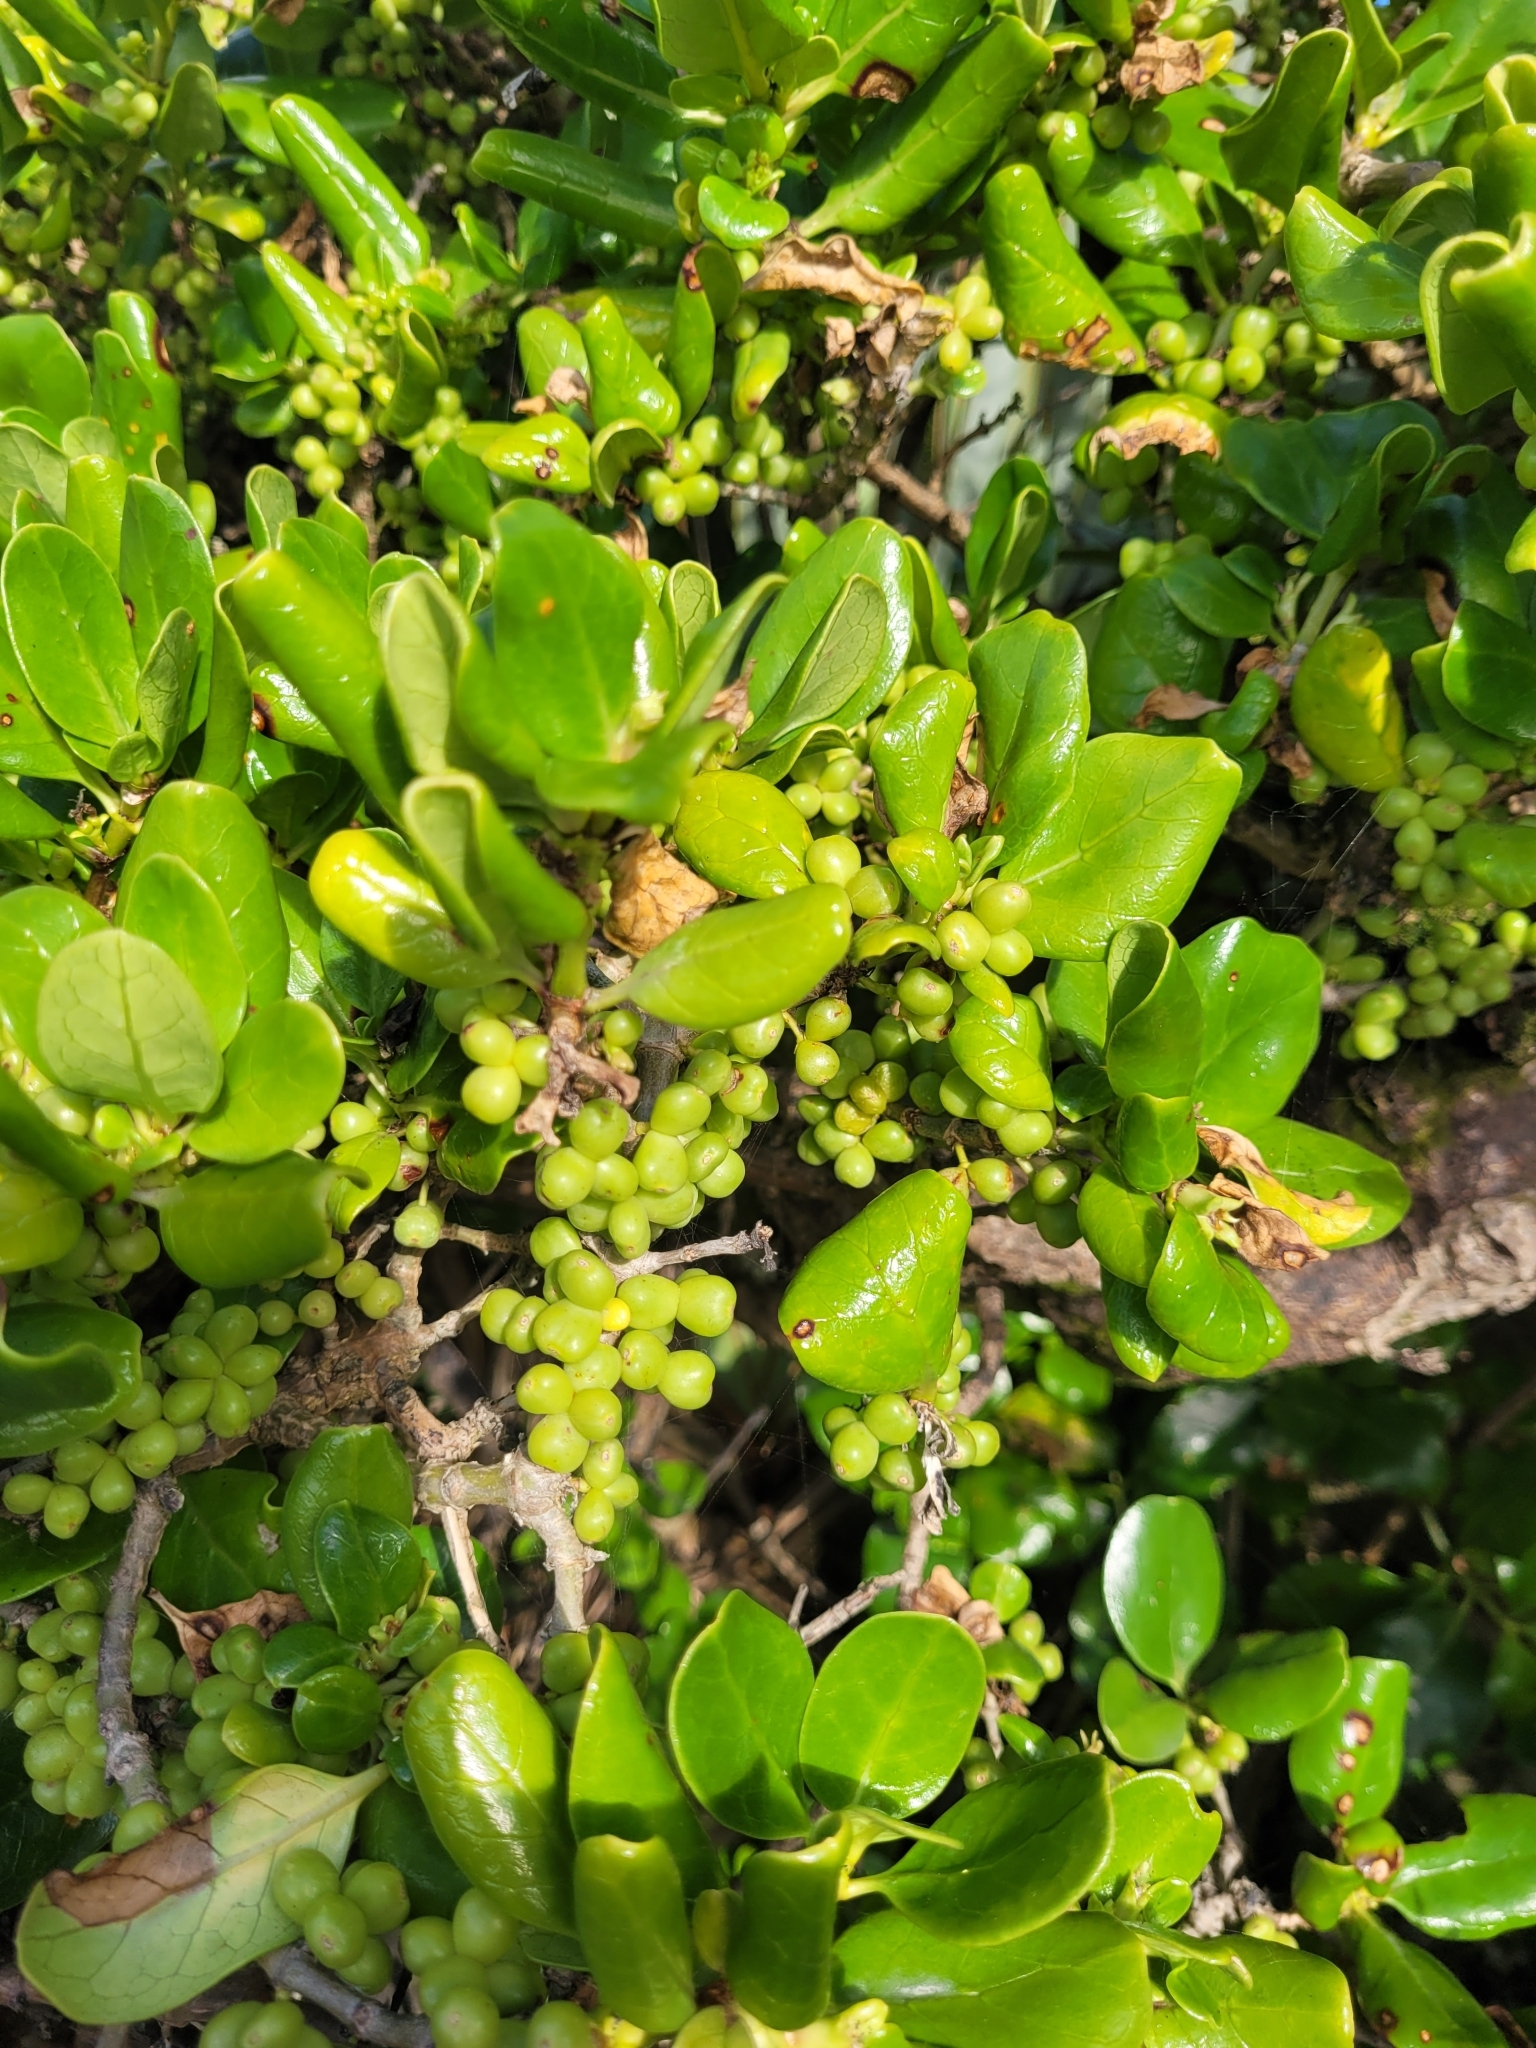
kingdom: Plantae
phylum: Tracheophyta
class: Magnoliopsida
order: Gentianales
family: Rubiaceae
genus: Coprosma
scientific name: Coprosma repens
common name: Tree bedstraw
